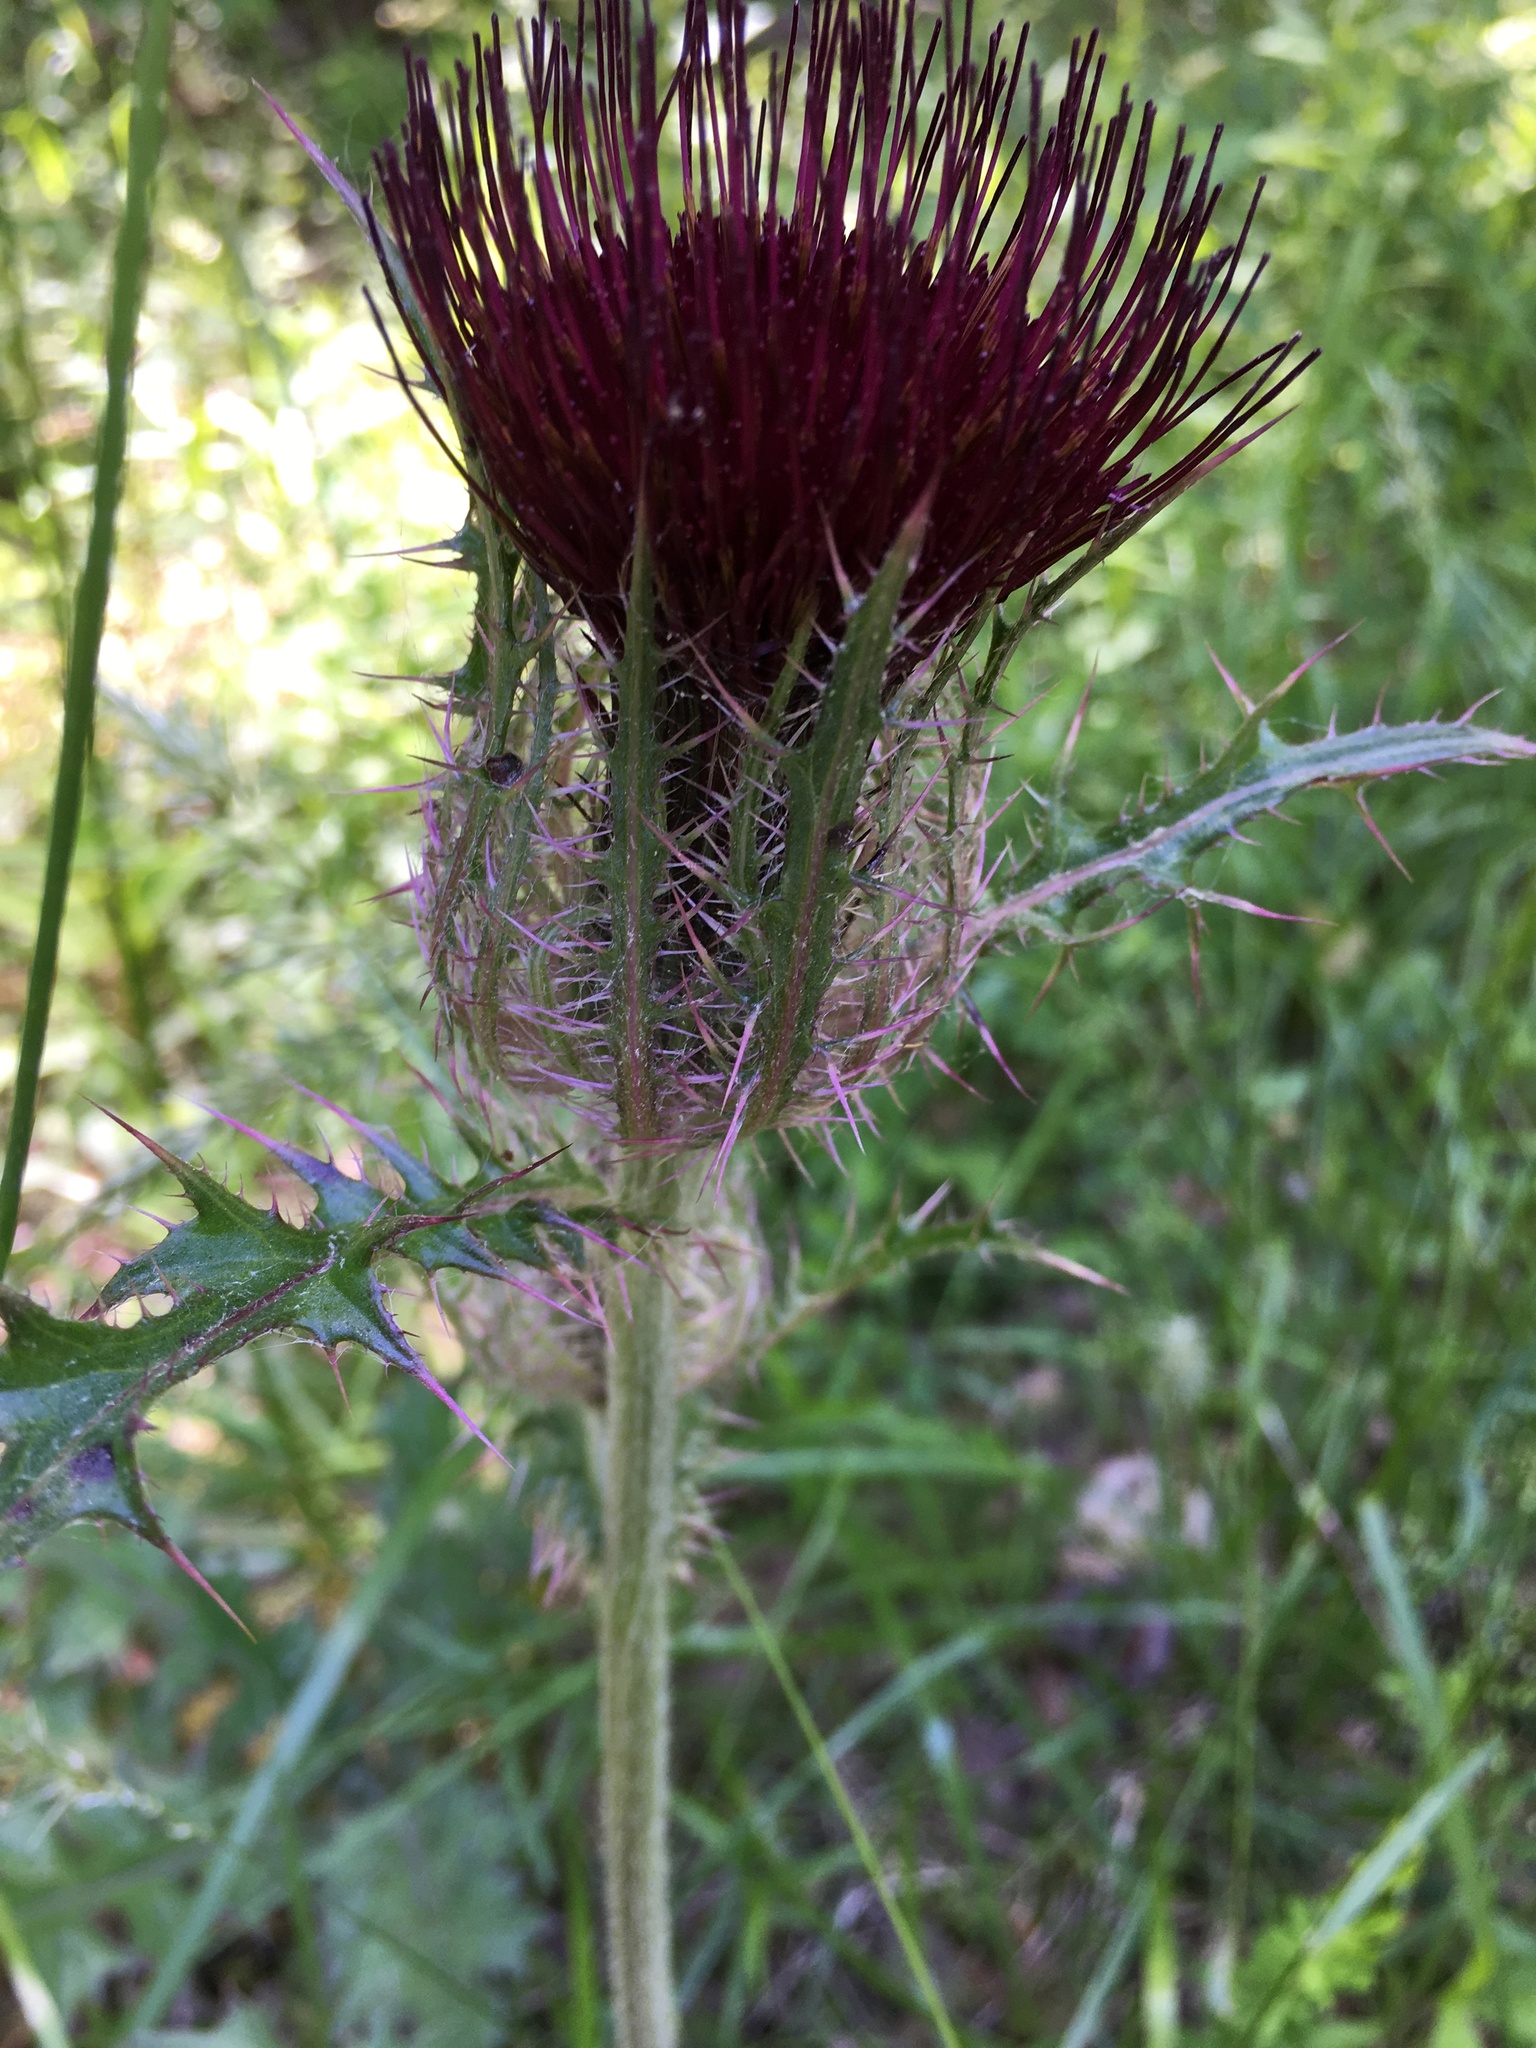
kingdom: Plantae
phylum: Tracheophyta
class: Magnoliopsida
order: Asterales
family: Asteraceae
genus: Cirsium
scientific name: Cirsium horridulum
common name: Bristly thistle
